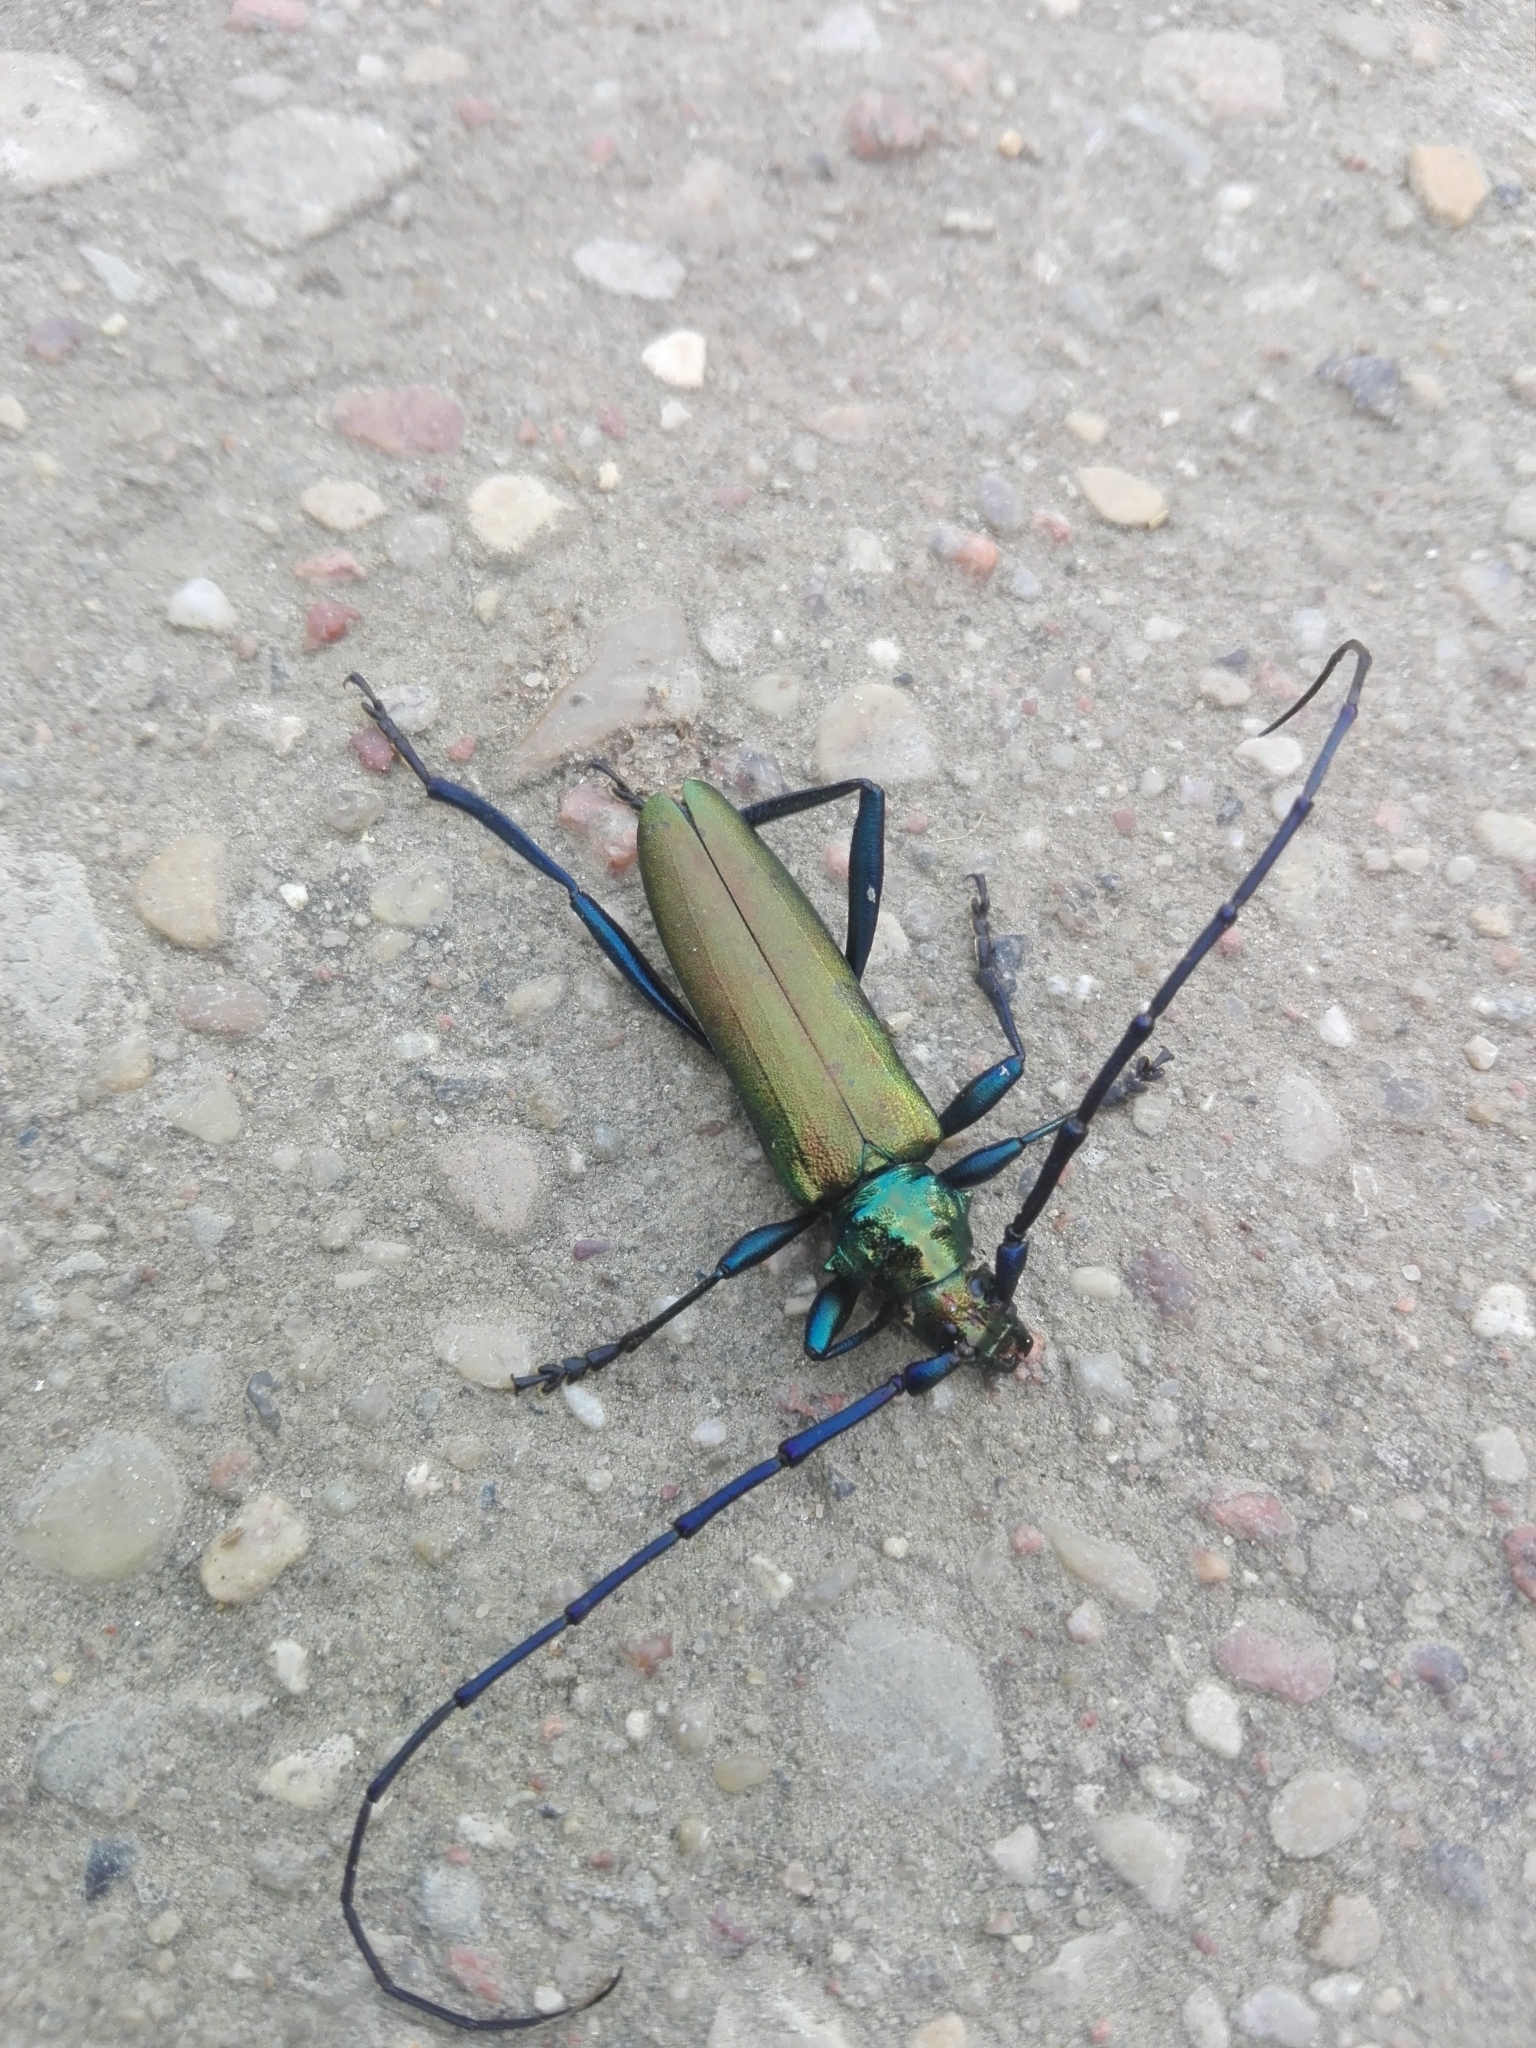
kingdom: Animalia
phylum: Arthropoda
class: Insecta
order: Coleoptera
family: Cerambycidae
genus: Aromia
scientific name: Aromia moschata
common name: Musk beetle
